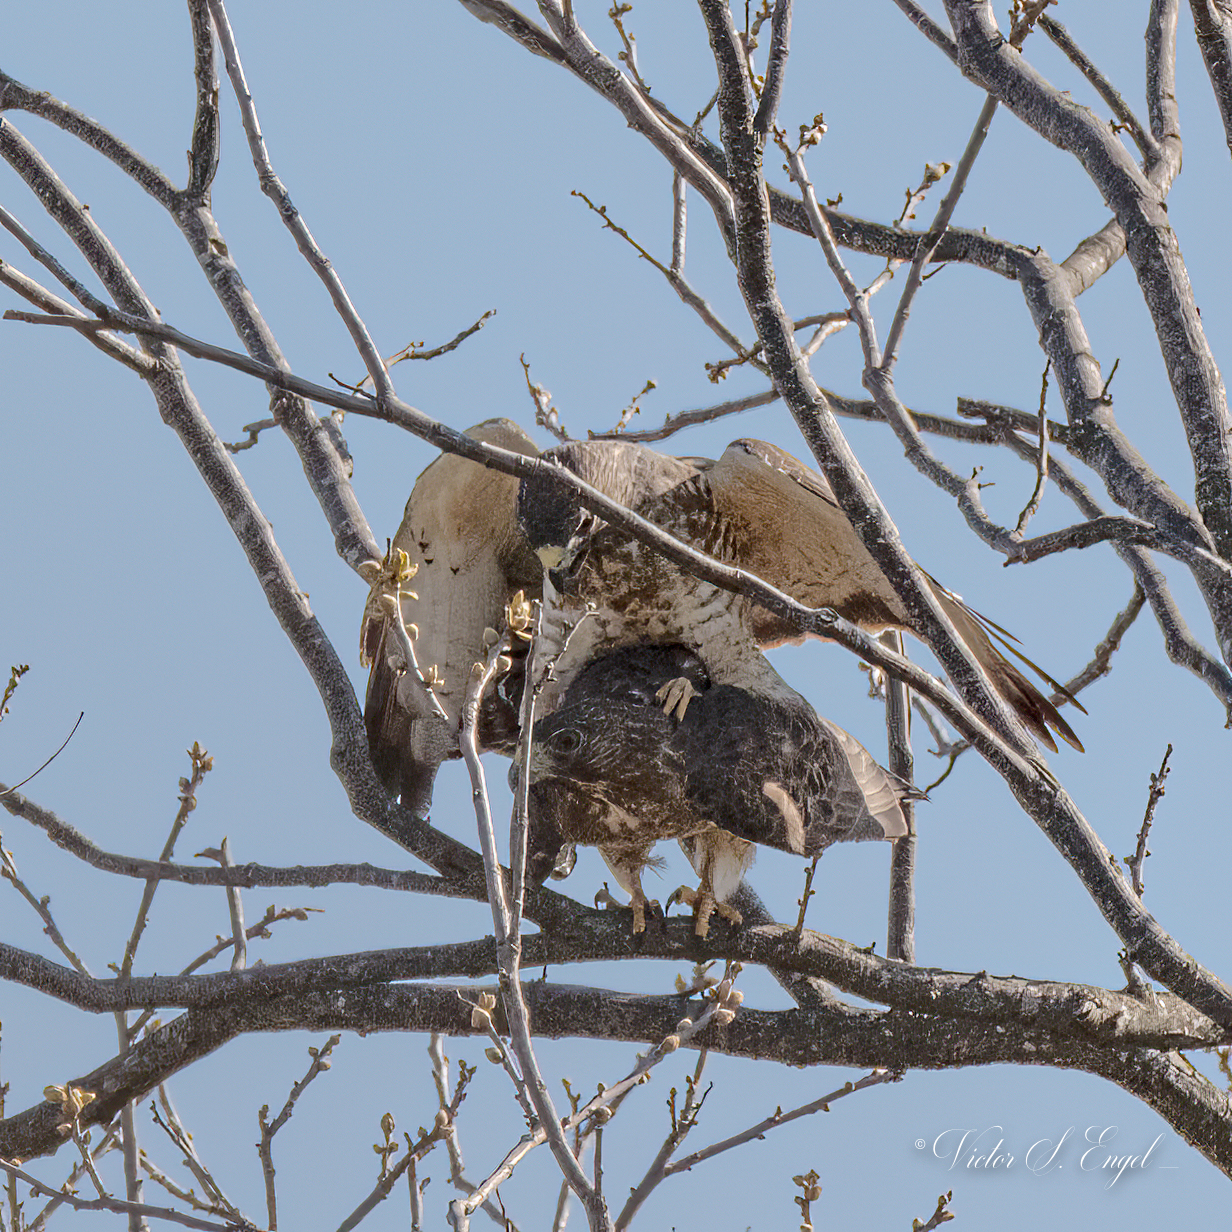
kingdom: Animalia
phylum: Chordata
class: Aves
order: Accipitriformes
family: Accipitridae
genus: Buteo
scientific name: Buteo platypterus
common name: Broad-winged hawk
